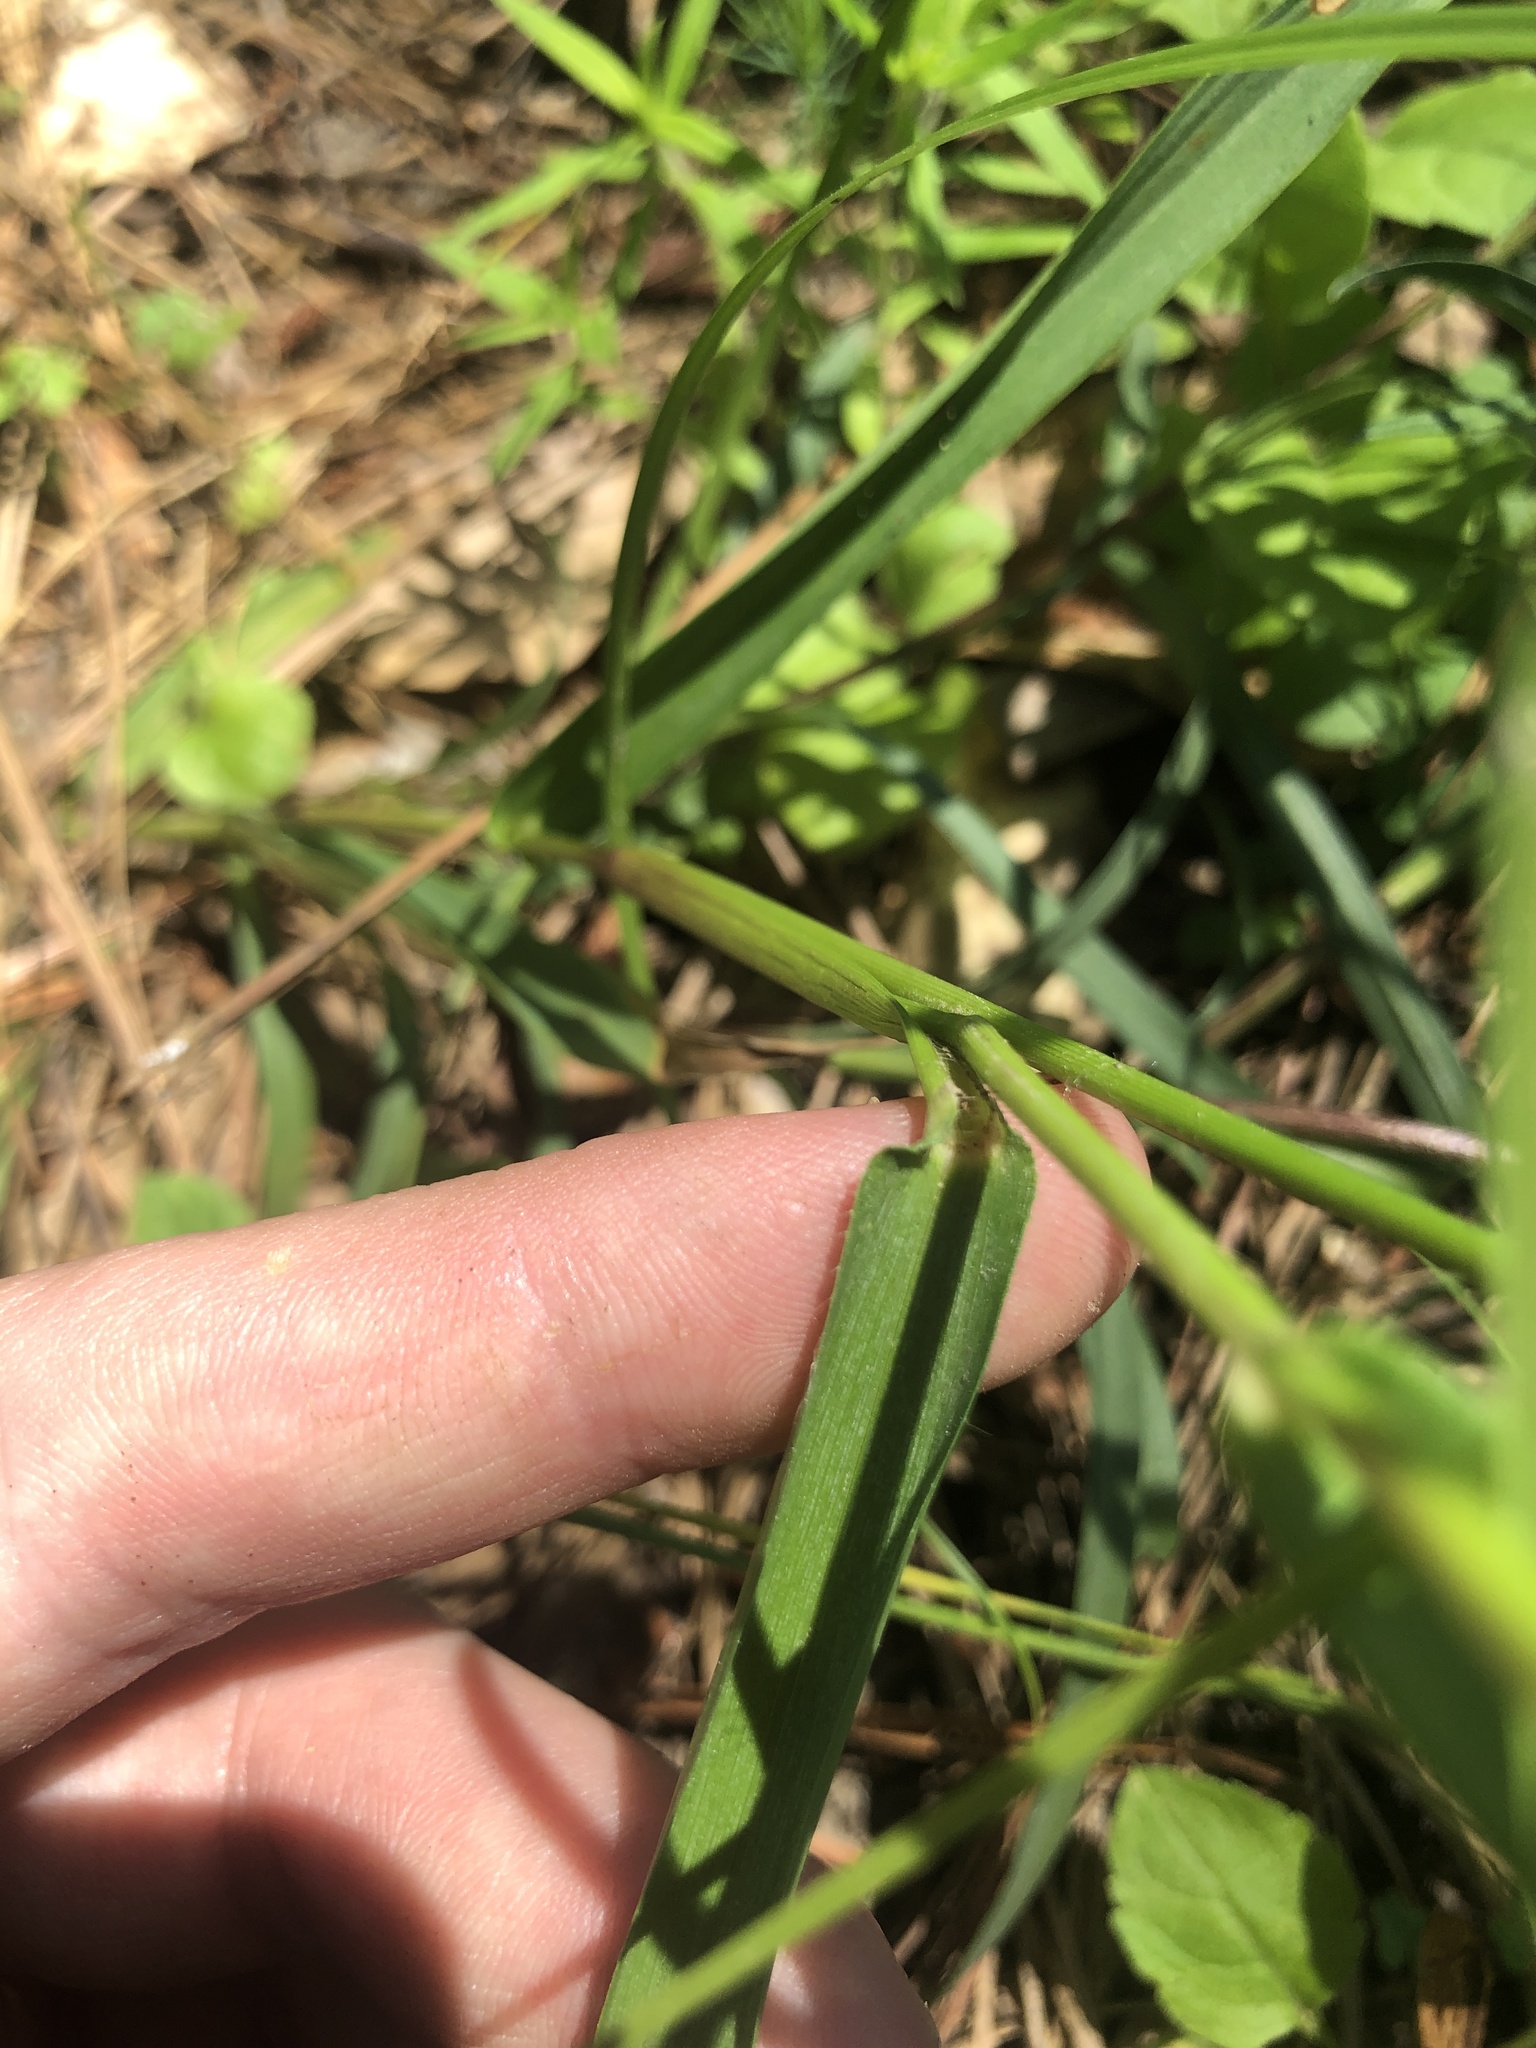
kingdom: Plantae
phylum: Tracheophyta
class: Liliopsida
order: Poales
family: Poaceae
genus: Dichanthelium
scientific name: Dichanthelium sphaerocarpon
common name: Round-fruited panicgrass
